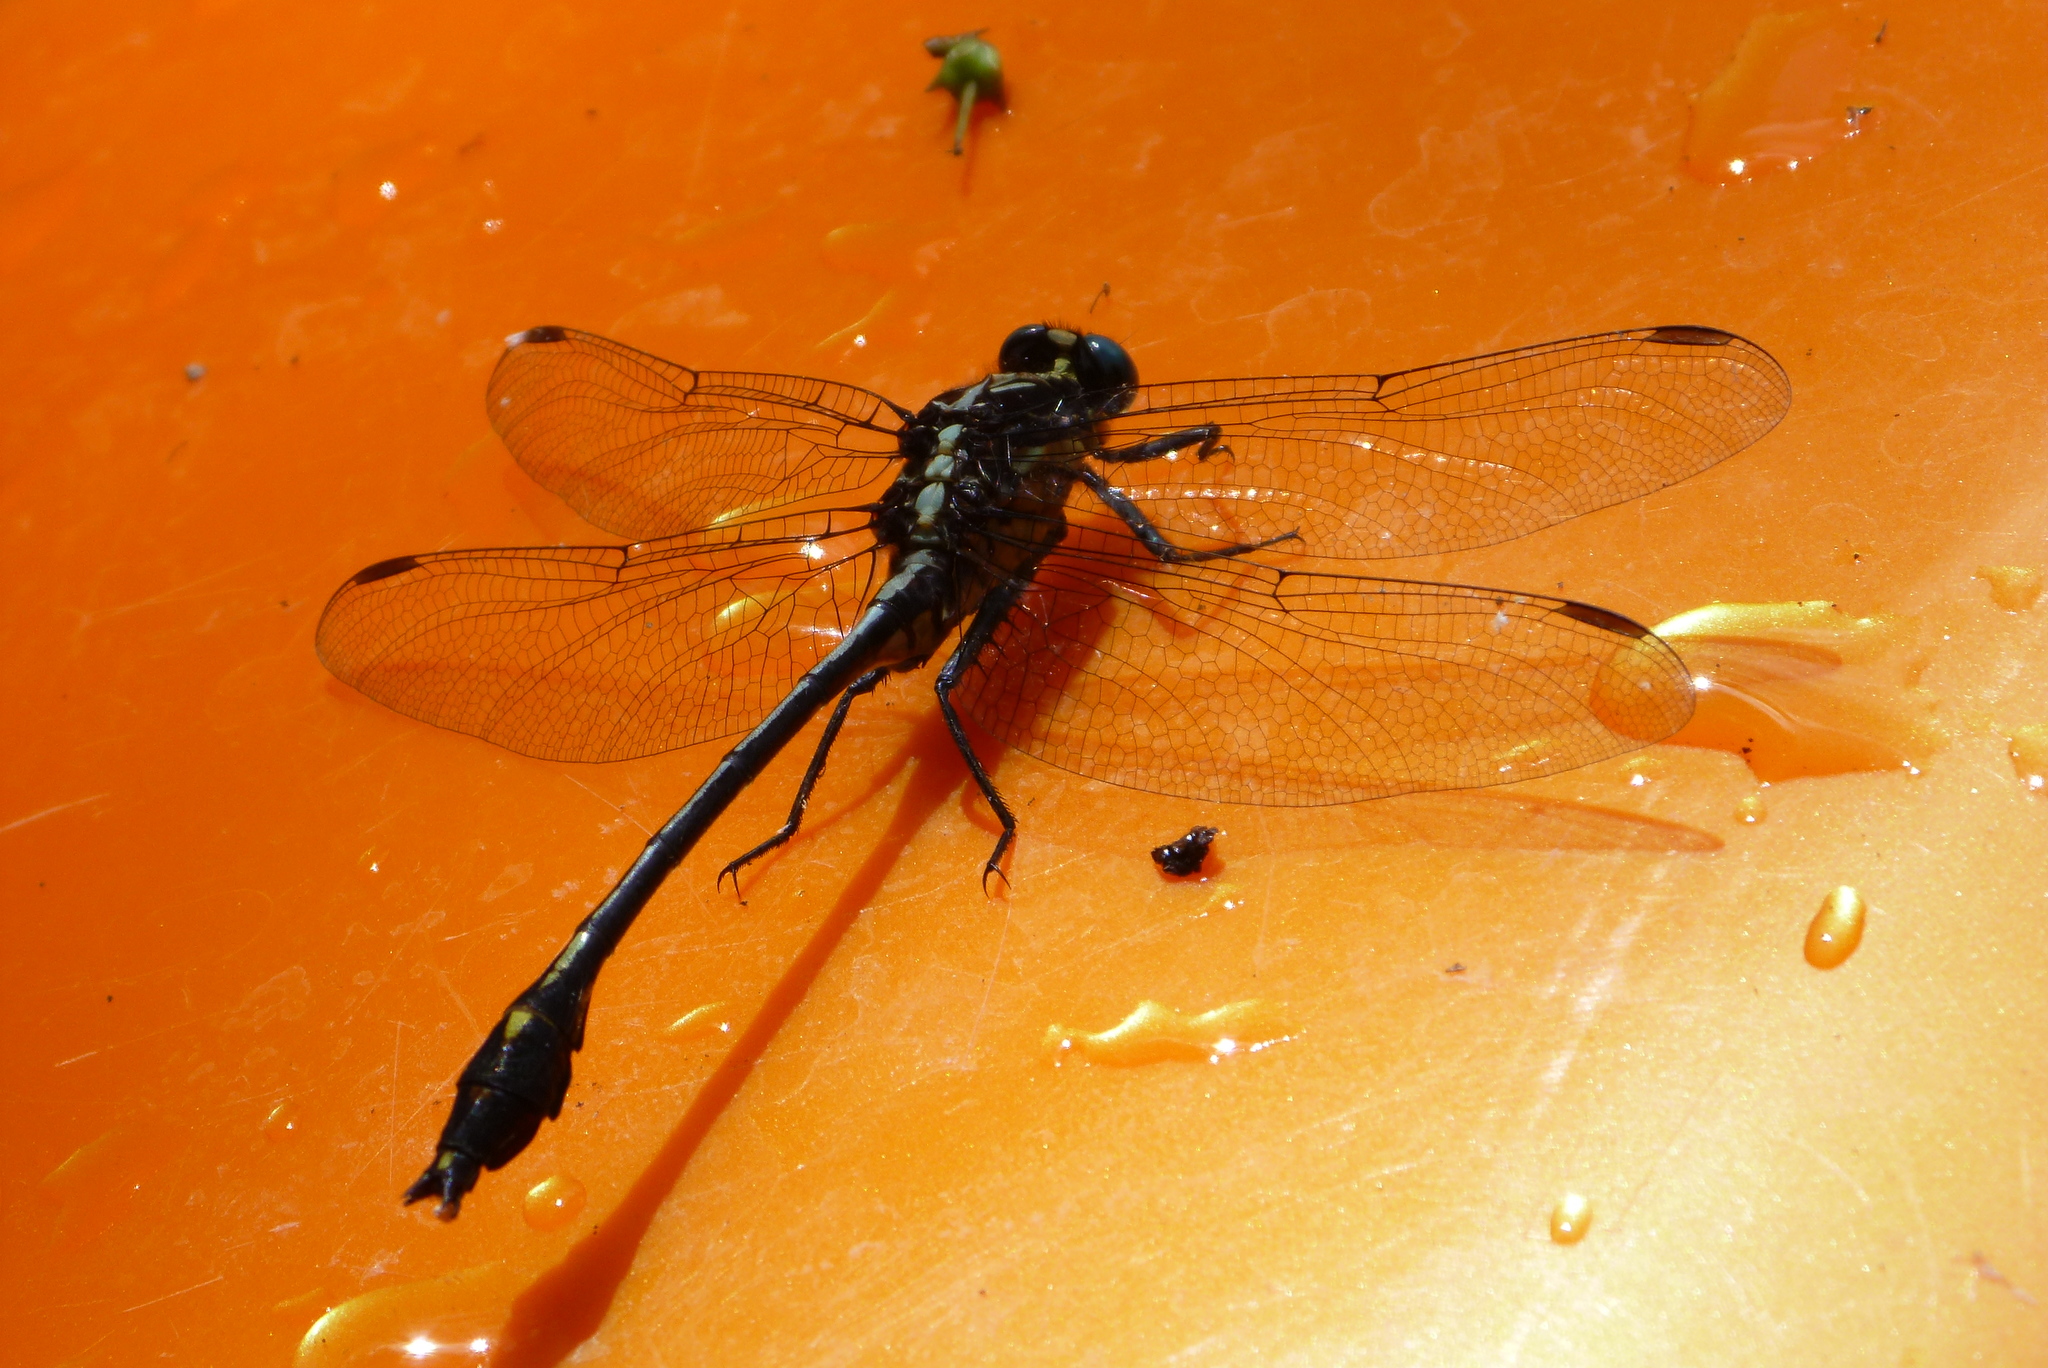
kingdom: Animalia
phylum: Arthropoda
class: Insecta
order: Odonata
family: Gomphidae
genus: Dromogomphus
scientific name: Dromogomphus spinosus
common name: Black-shouldered spinyleg
